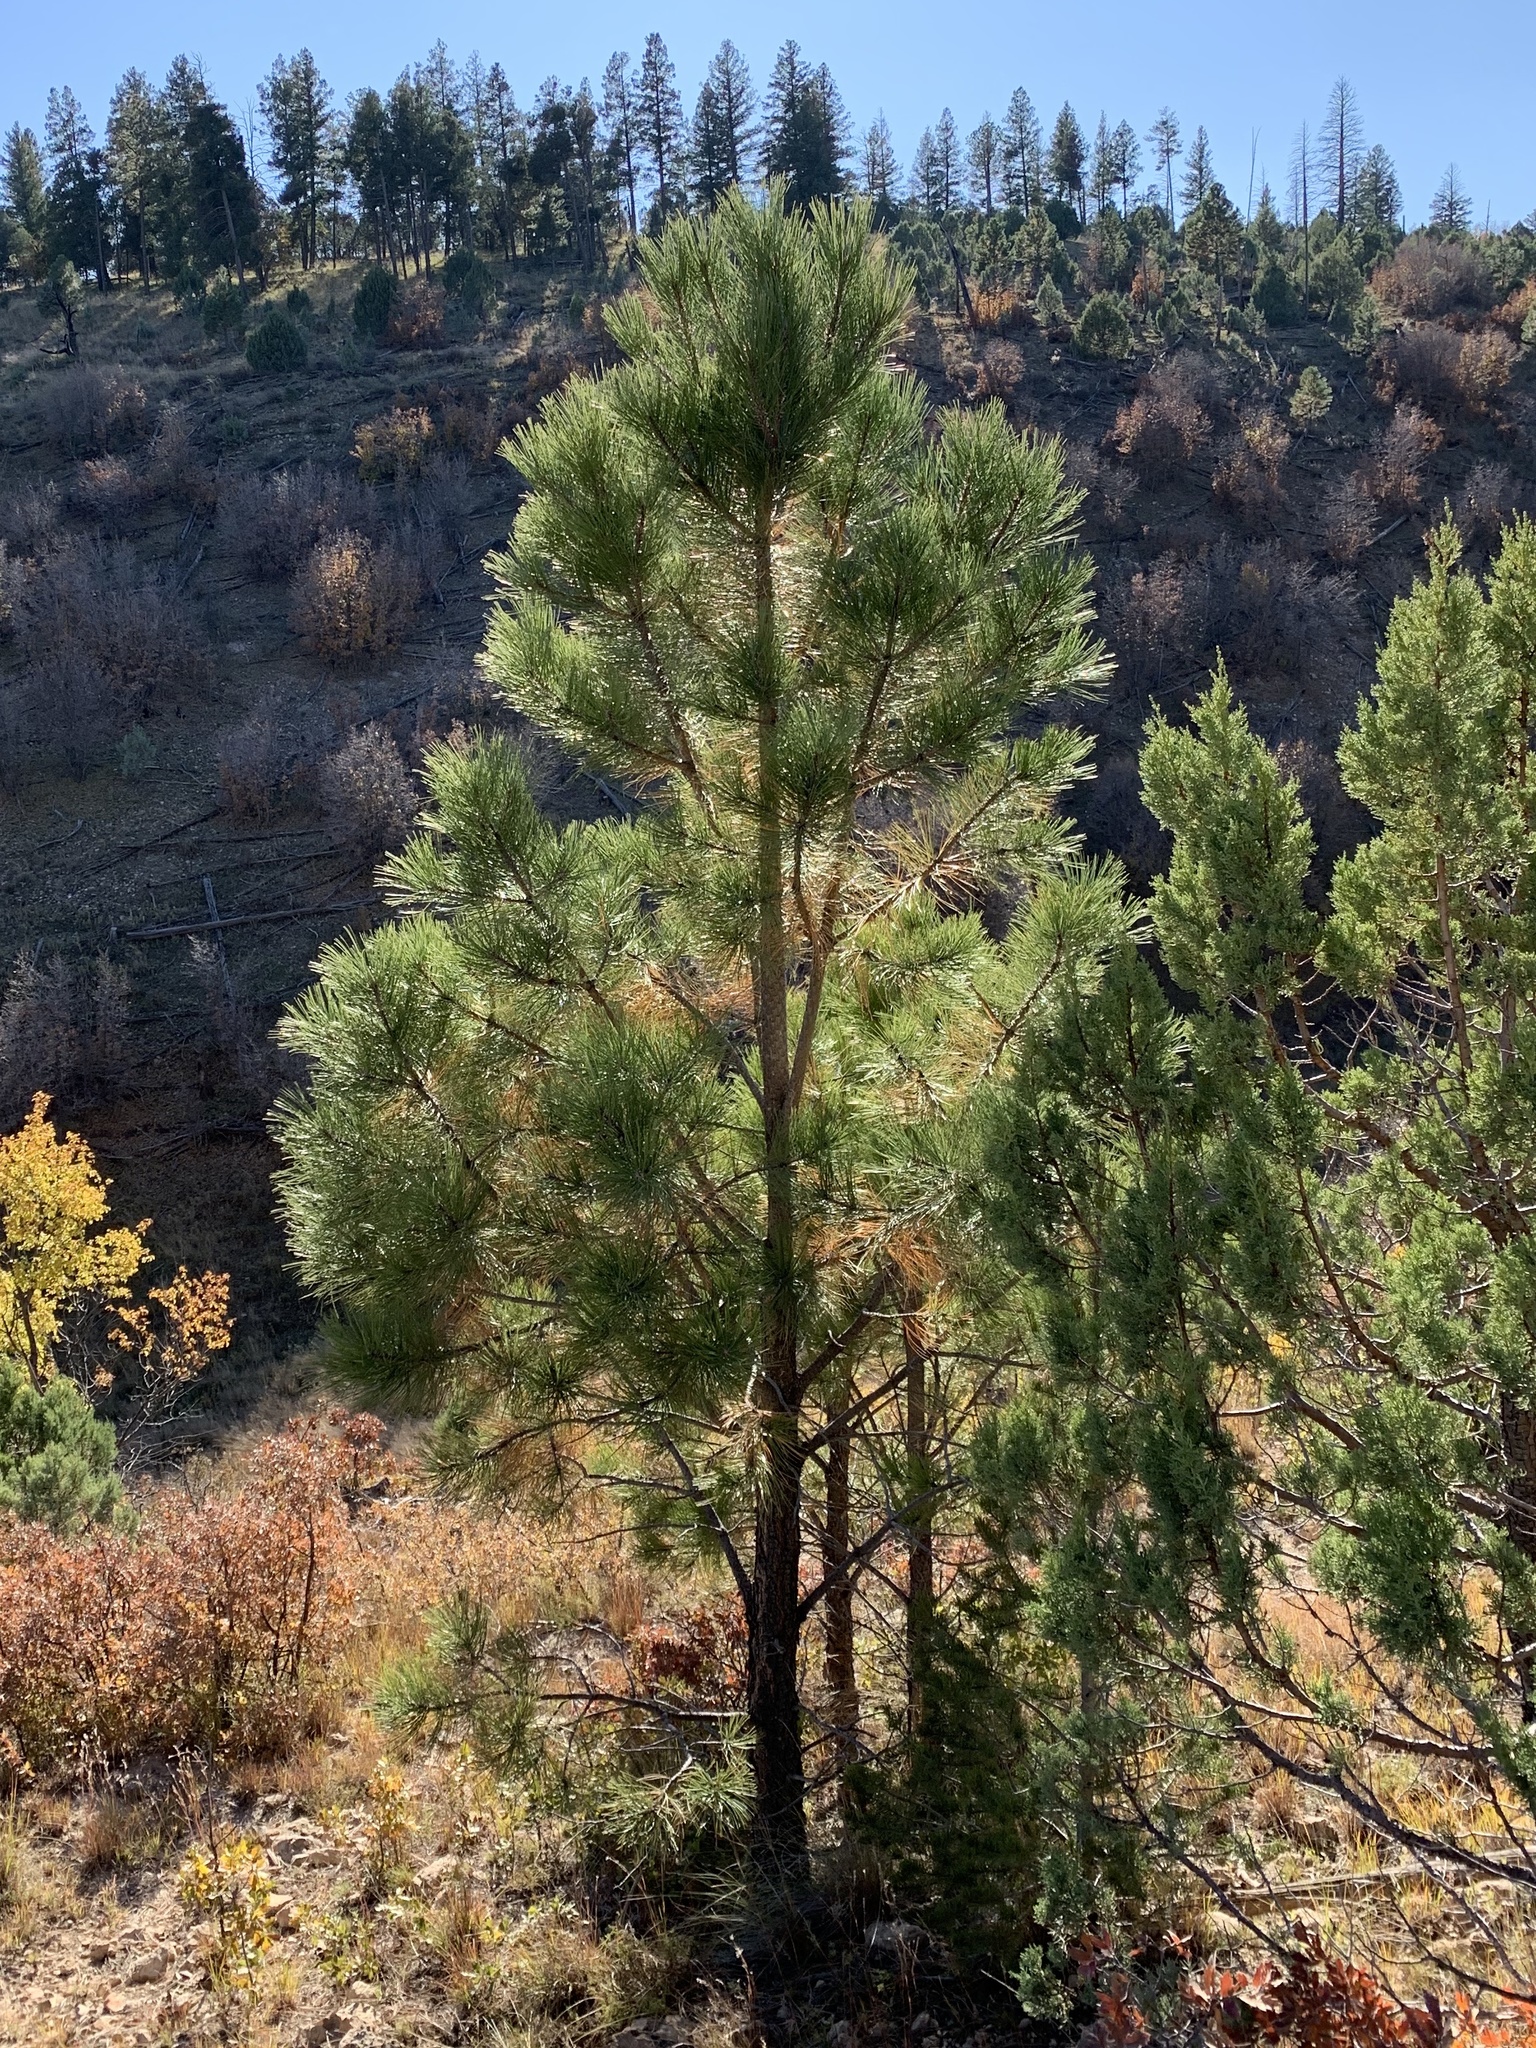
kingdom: Plantae
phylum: Tracheophyta
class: Pinopsida
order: Pinales
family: Pinaceae
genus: Pinus
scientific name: Pinus ponderosa
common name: Western yellow-pine
